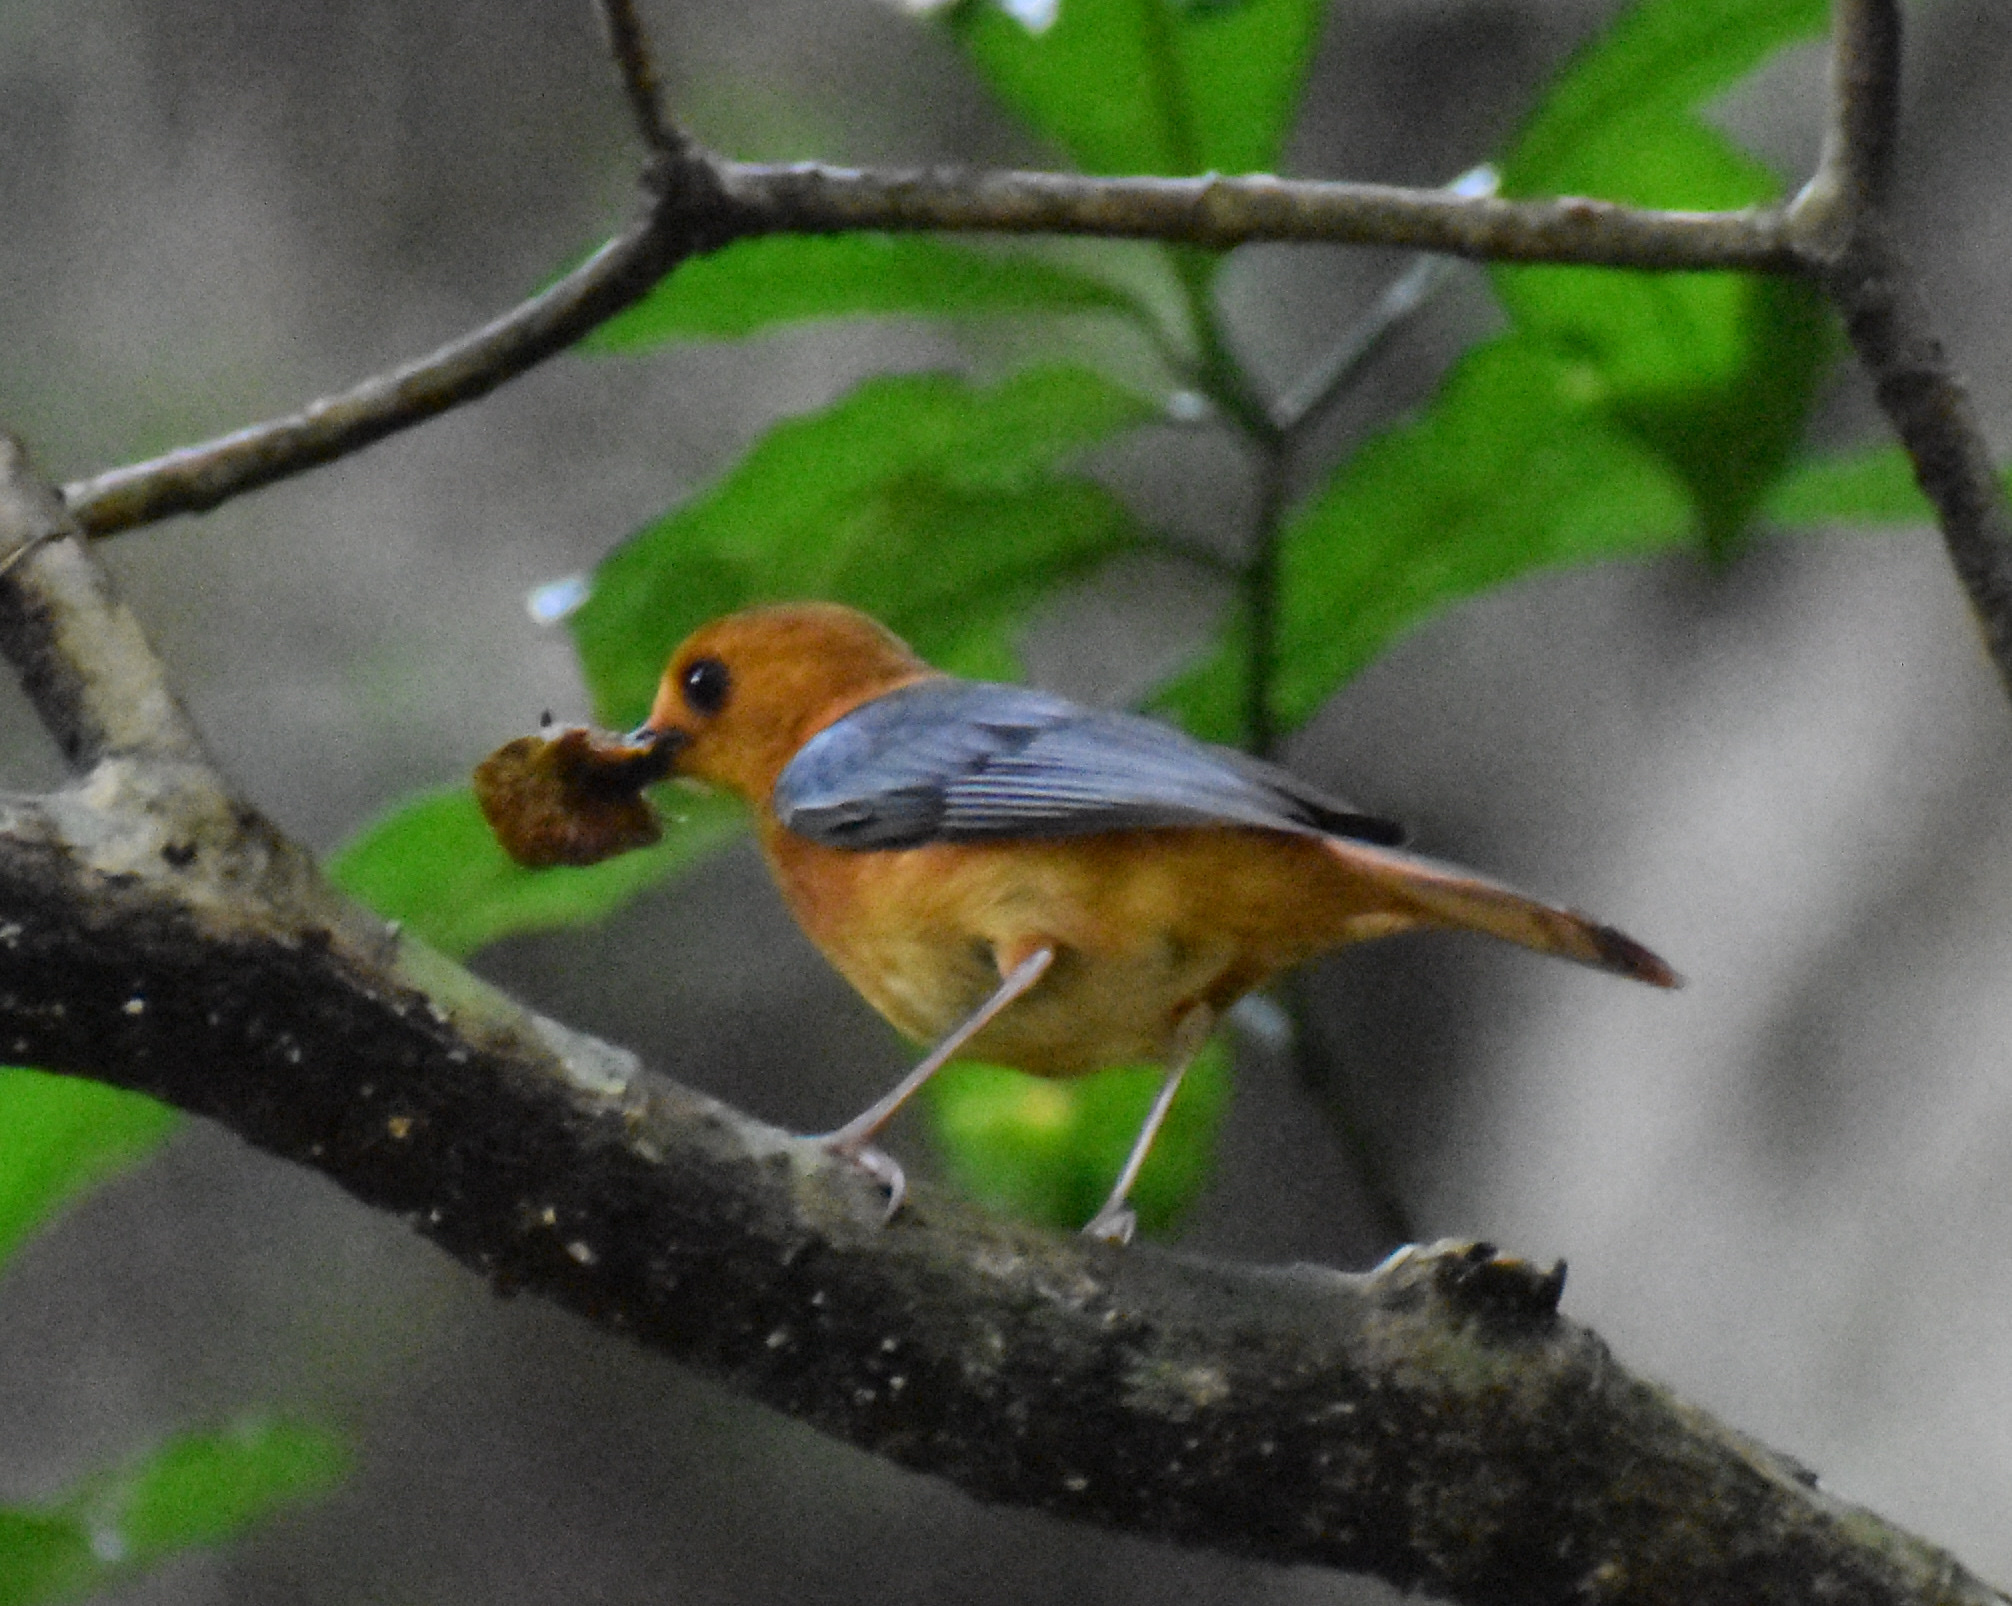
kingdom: Animalia
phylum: Chordata
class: Aves
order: Passeriformes
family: Muscicapidae
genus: Cossypha
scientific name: Cossypha natalensis
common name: Red-capped robin-chat
